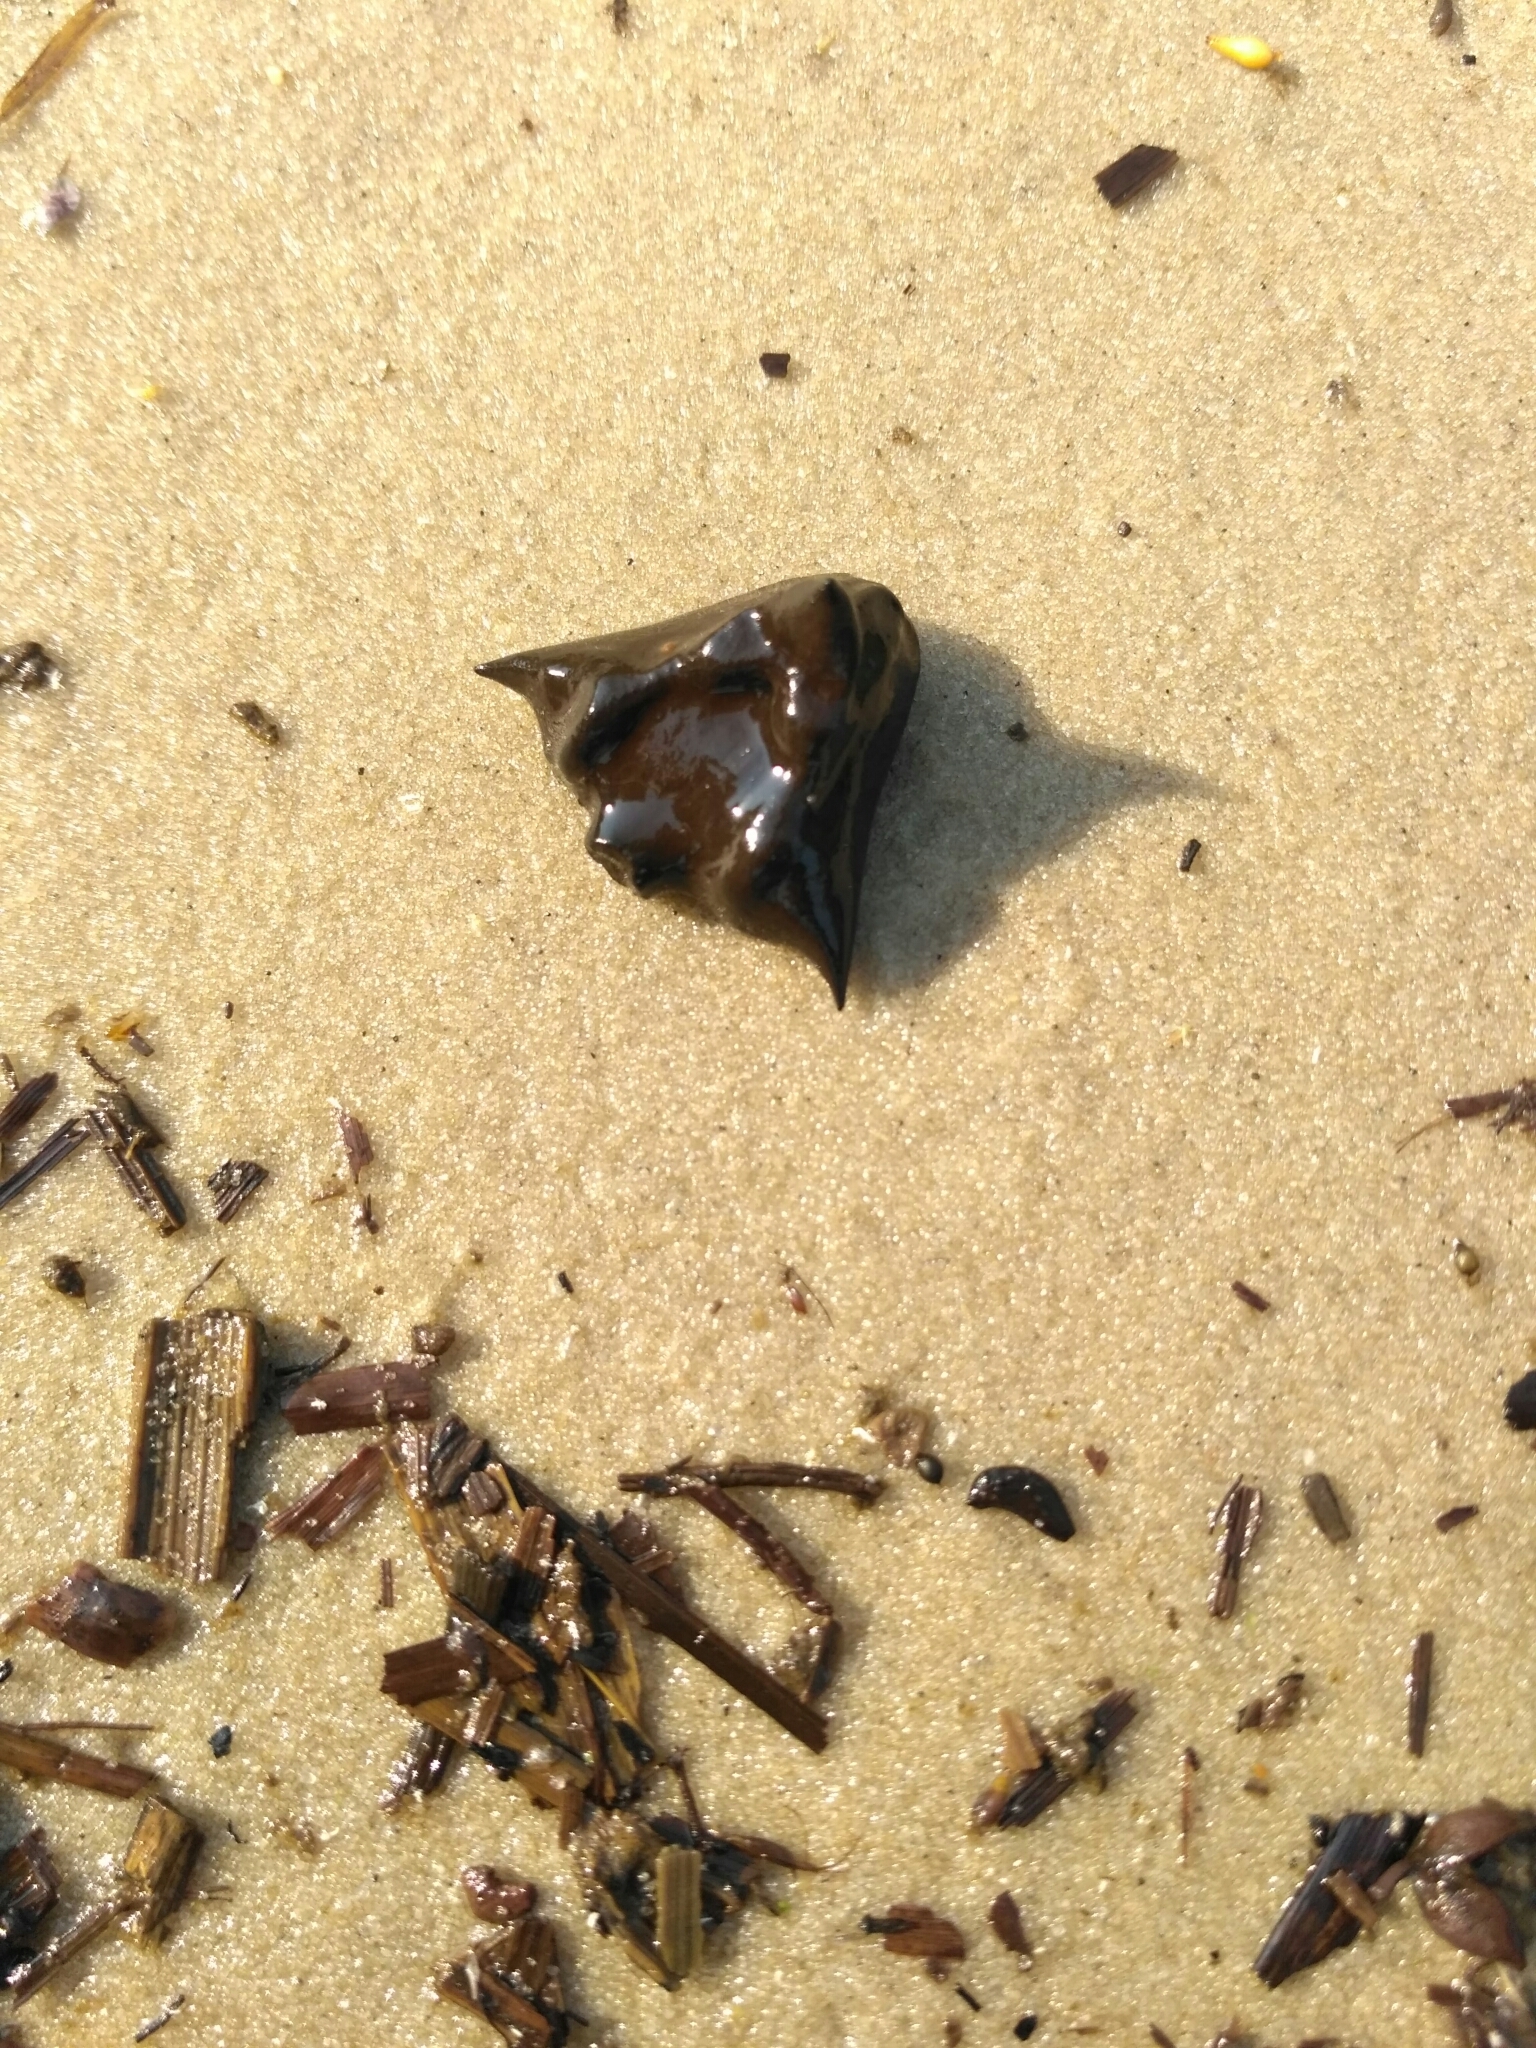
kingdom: Plantae
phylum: Tracheophyta
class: Magnoliopsida
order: Myrtales
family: Lythraceae
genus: Trapa
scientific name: Trapa natans
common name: Water chestnut
